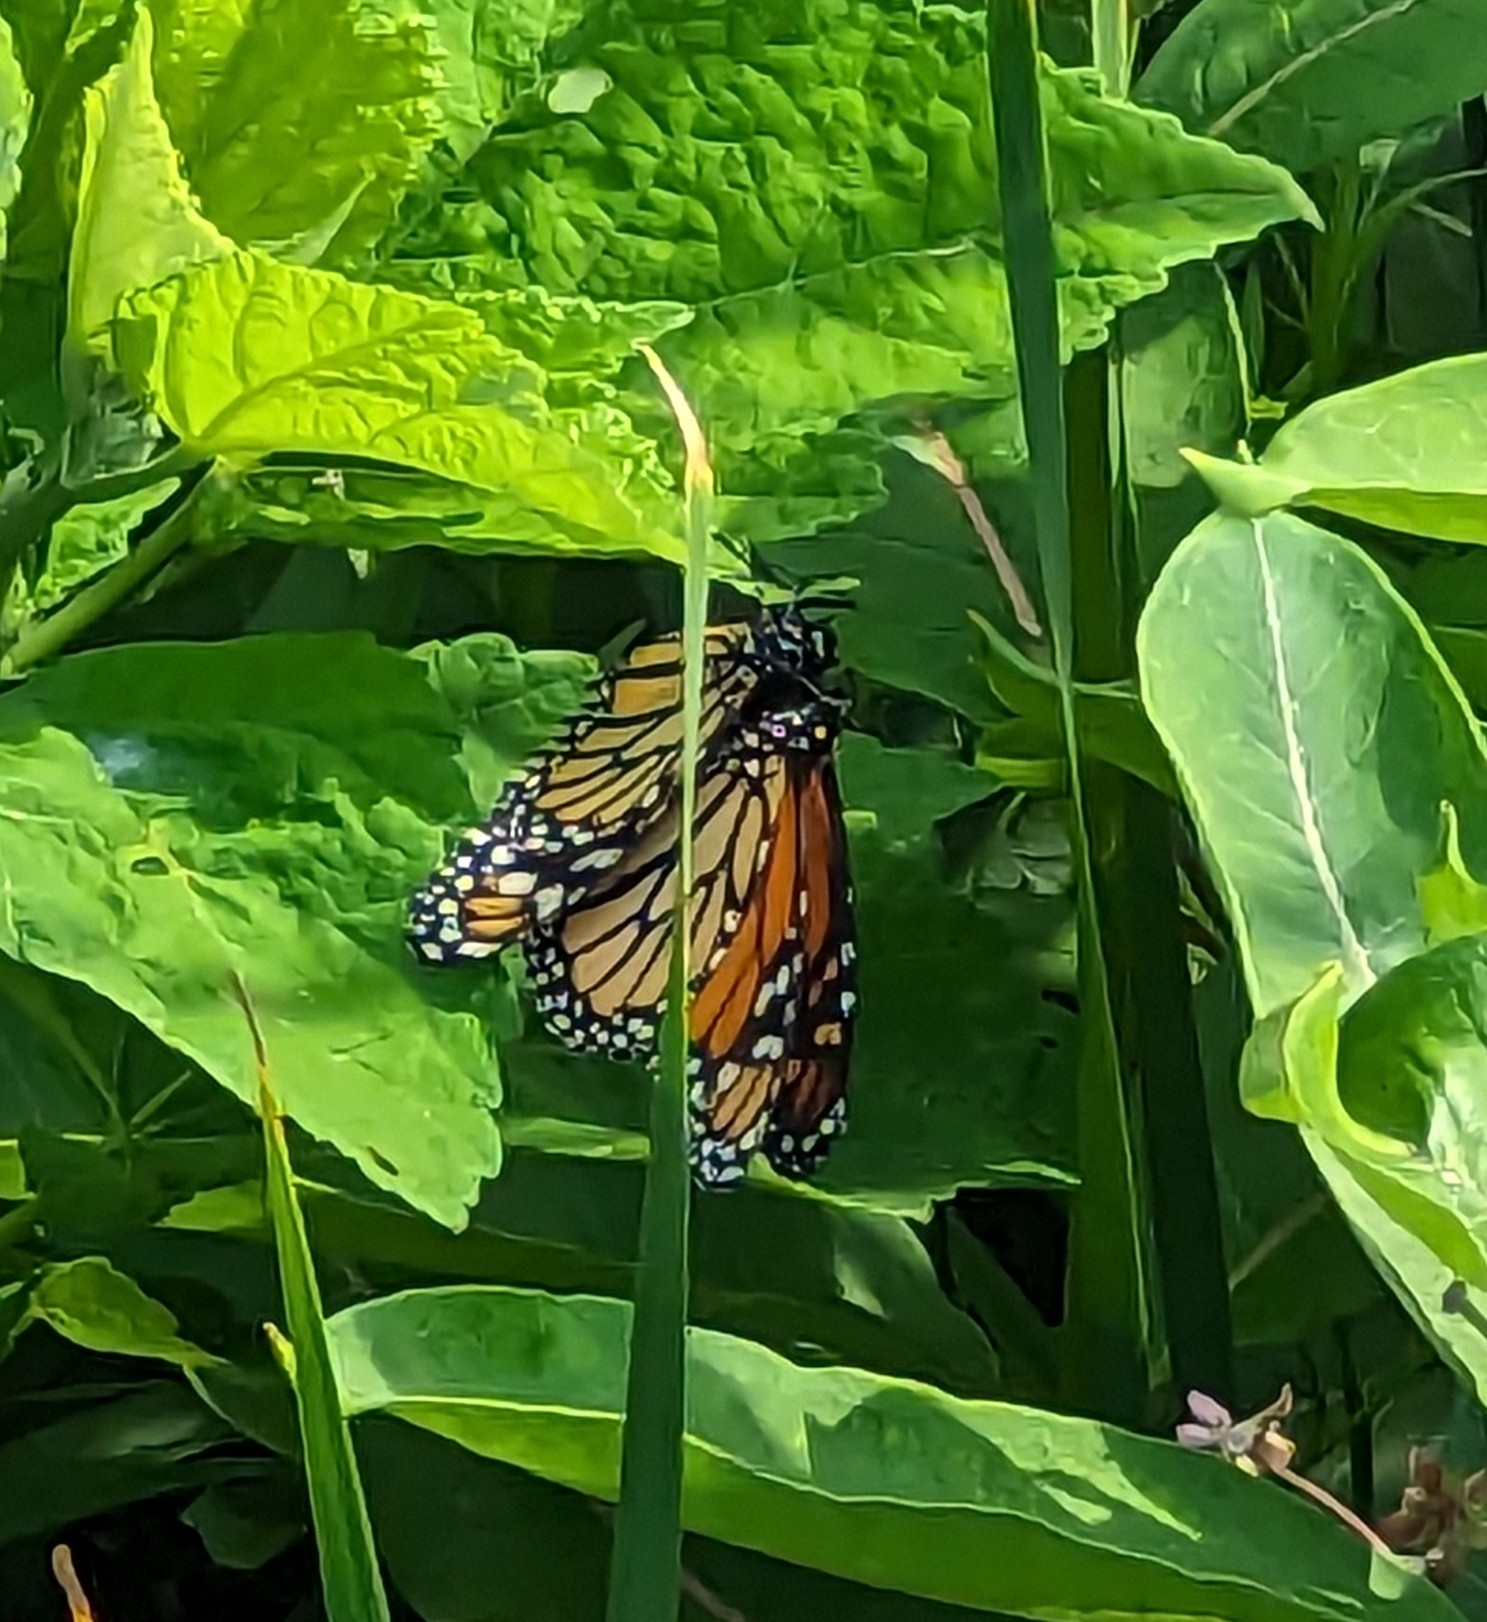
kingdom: Animalia
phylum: Arthropoda
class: Insecta
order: Lepidoptera
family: Nymphalidae
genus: Danaus
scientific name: Danaus plexippus
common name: Monarch
